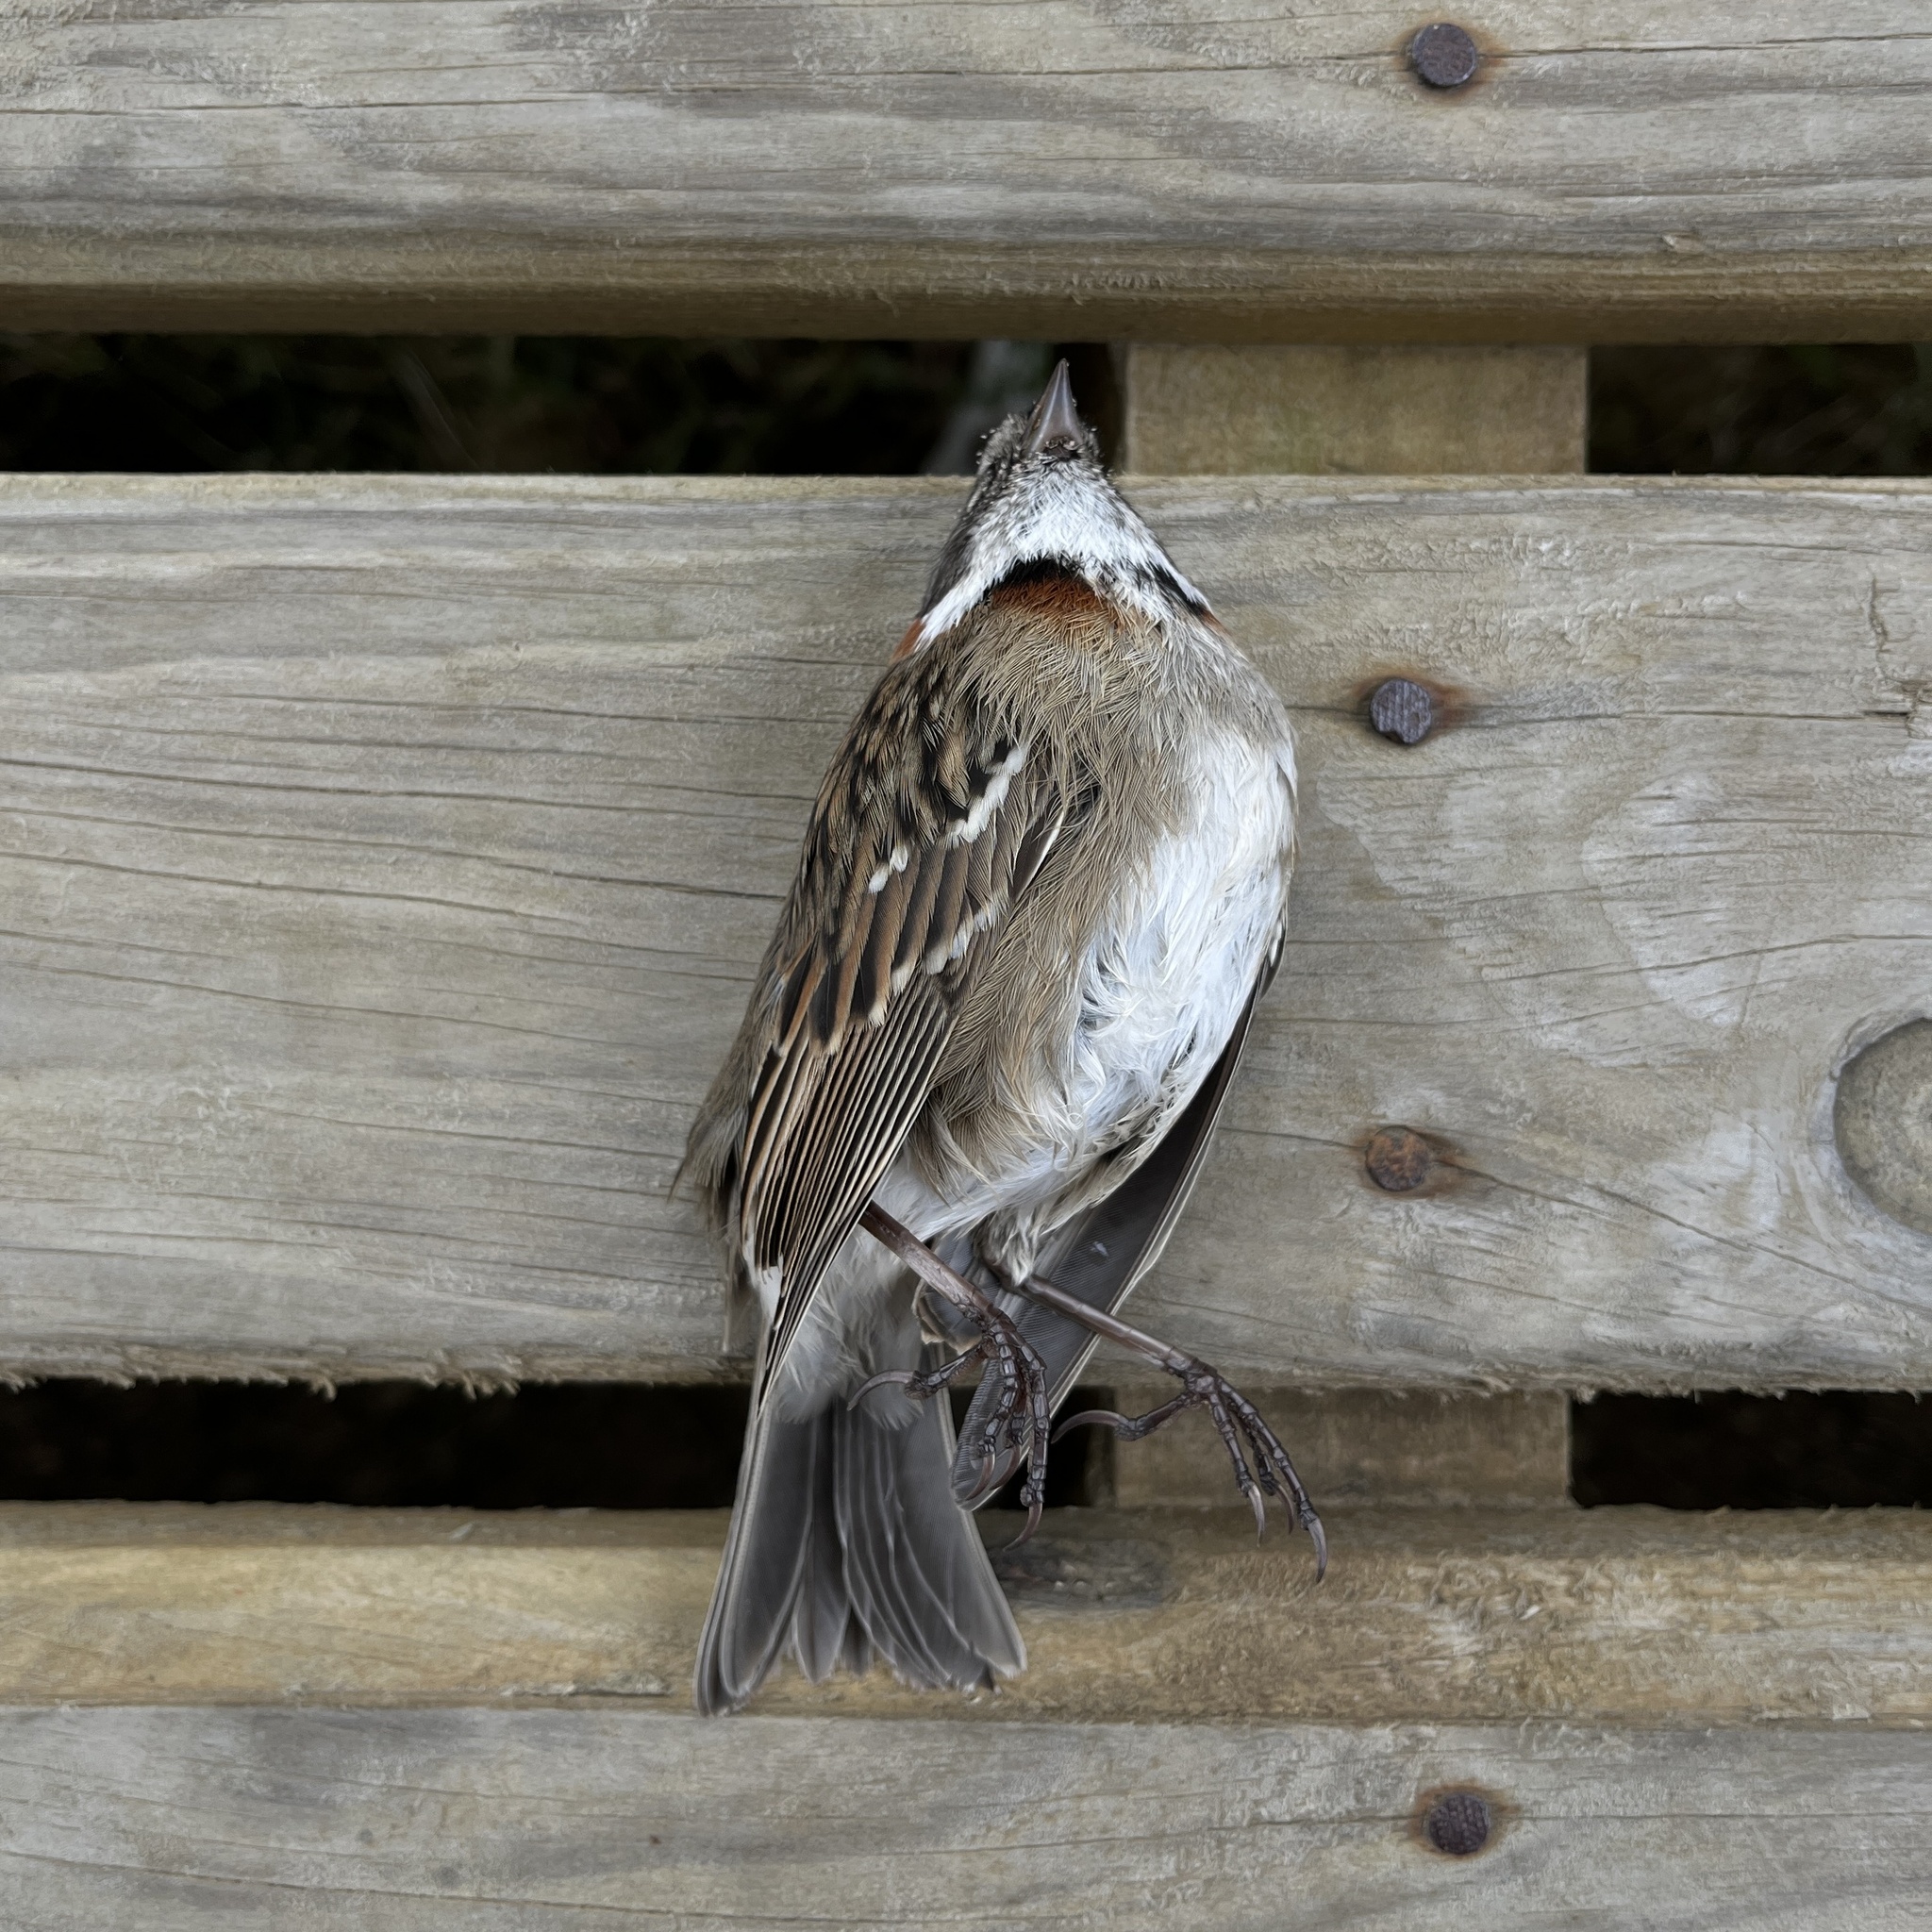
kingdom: Animalia
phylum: Chordata
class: Aves
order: Passeriformes
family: Passerellidae
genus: Zonotrichia
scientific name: Zonotrichia capensis
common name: Rufous-collared sparrow
